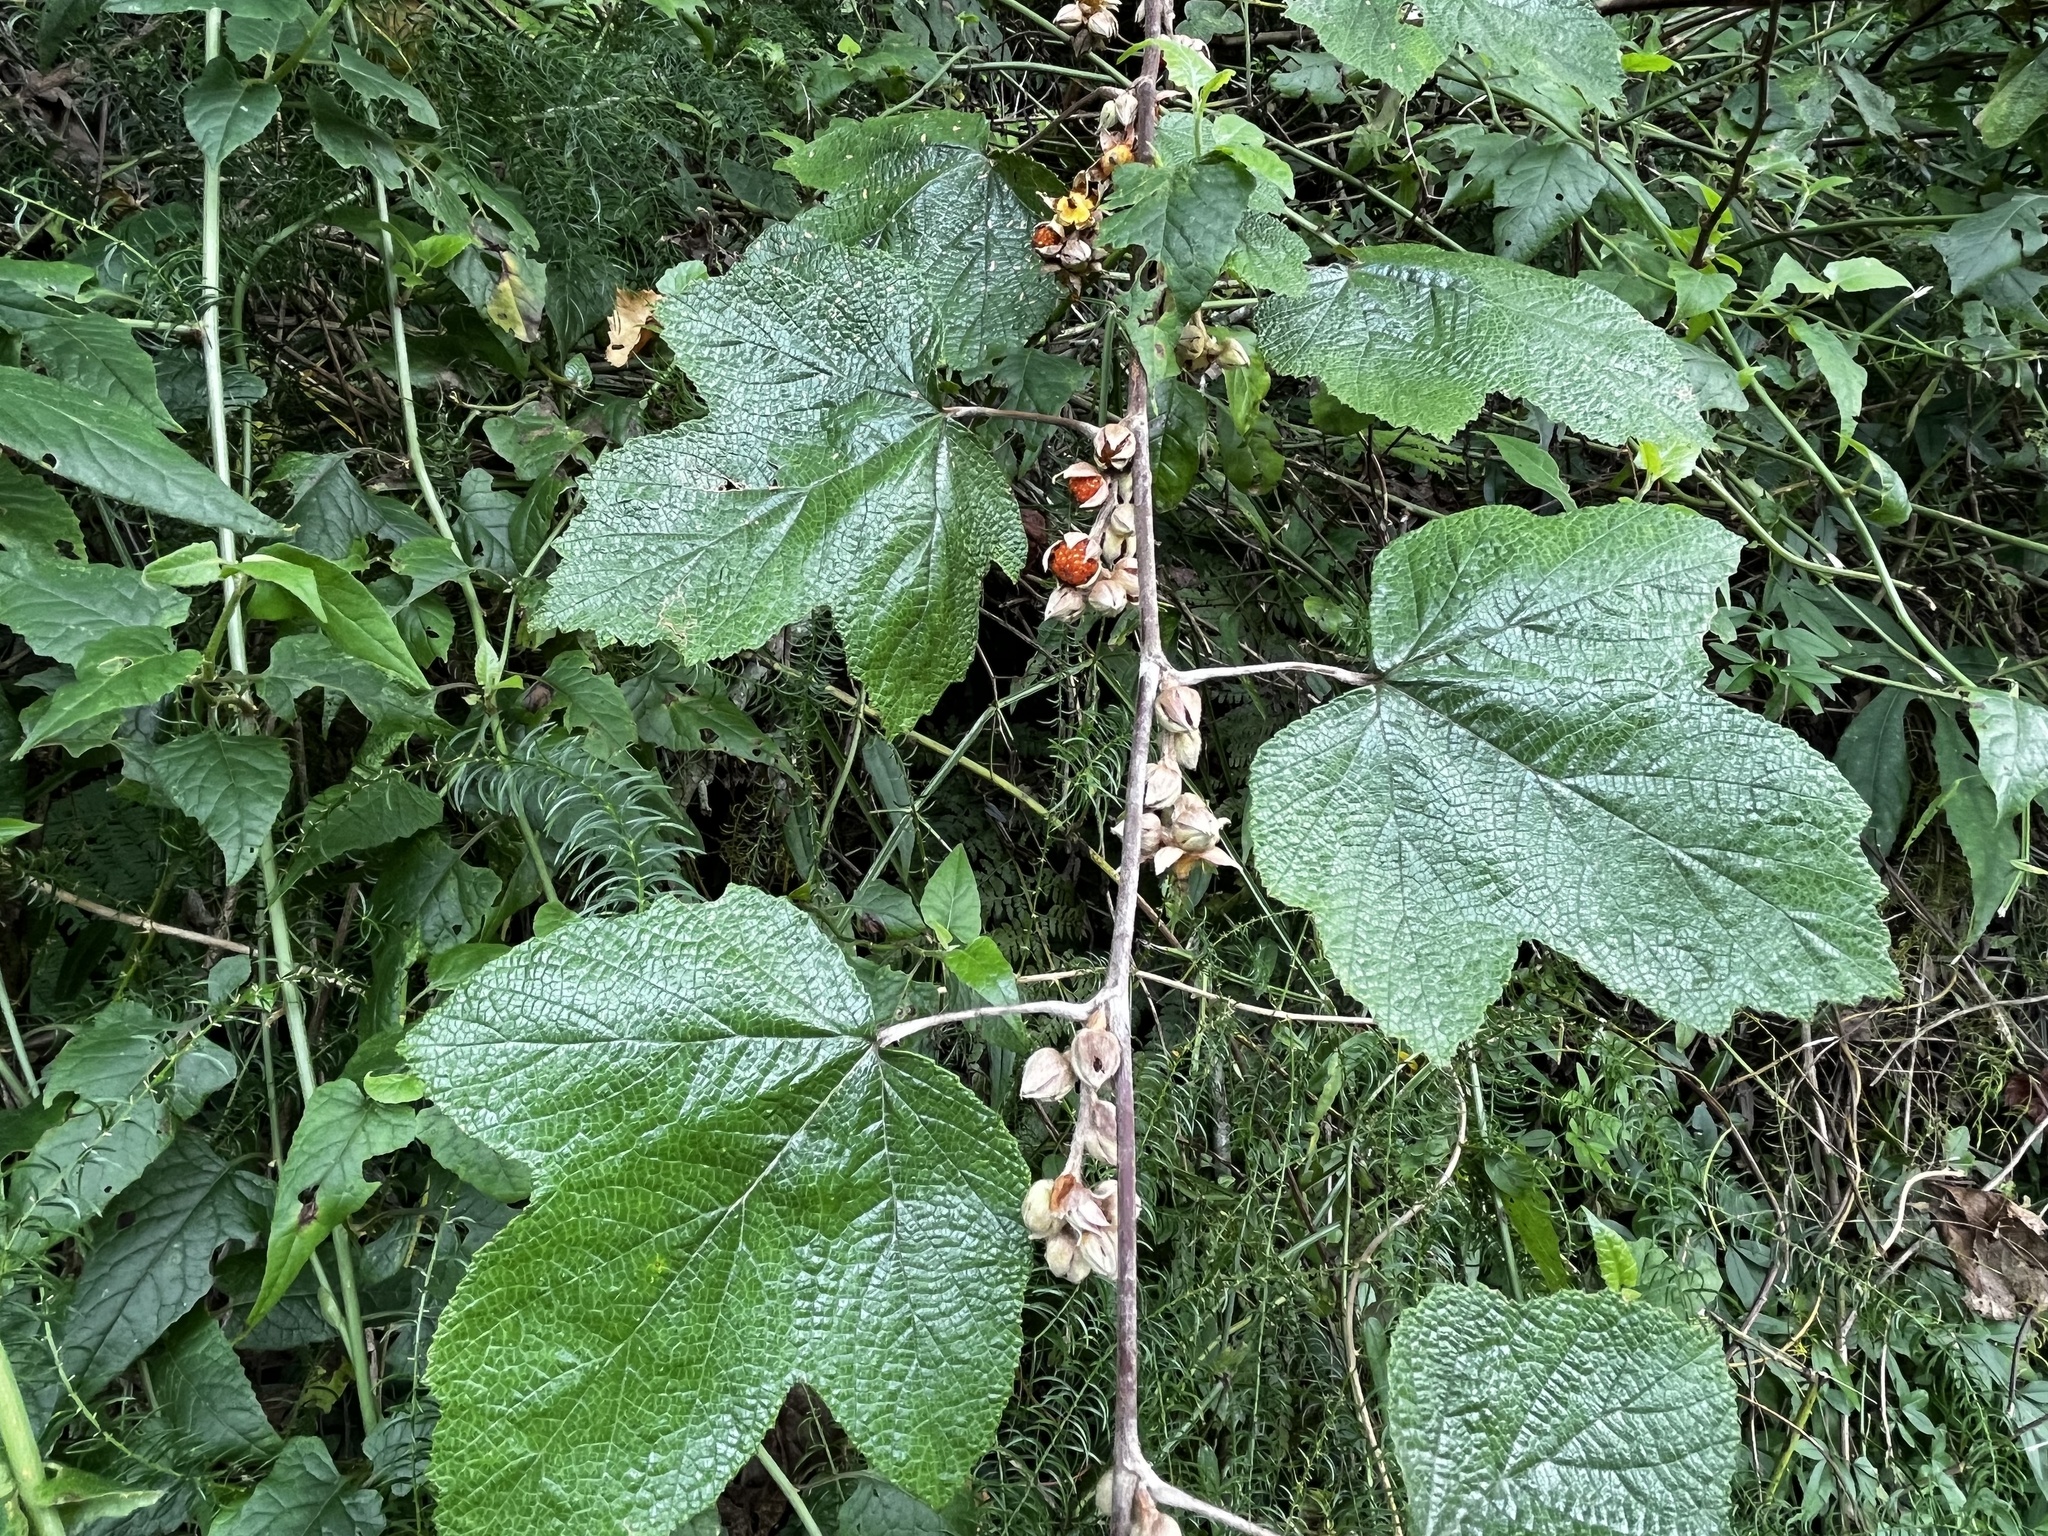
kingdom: Plantae
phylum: Tracheophyta
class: Magnoliopsida
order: Rosales
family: Rosaceae
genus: Rubus
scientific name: Rubus formosensis
